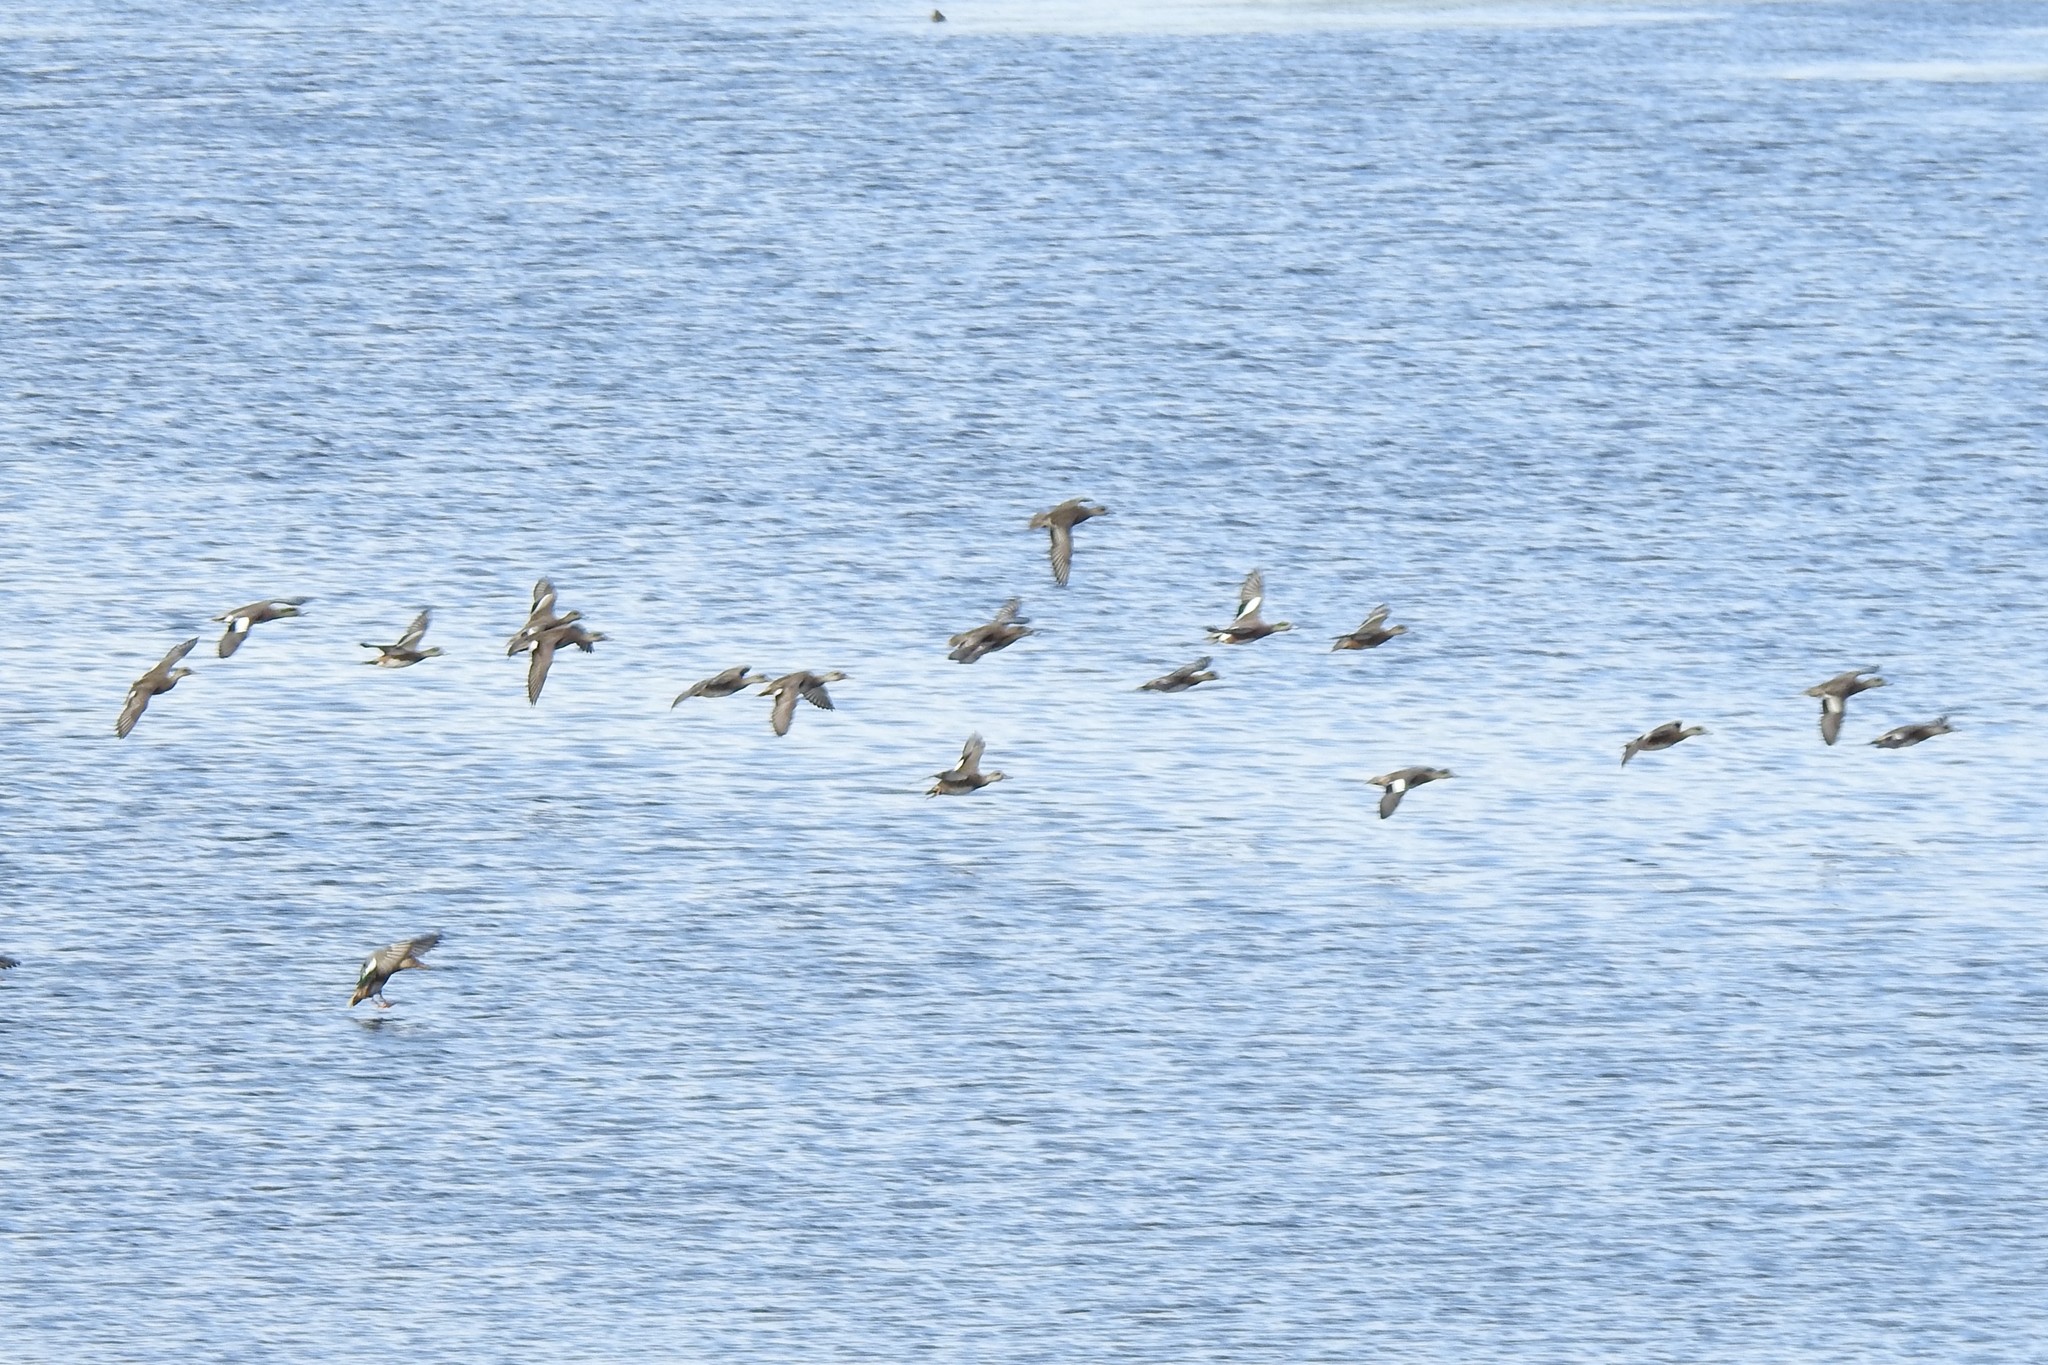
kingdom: Animalia
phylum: Chordata
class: Aves
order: Anseriformes
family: Anatidae
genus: Mareca
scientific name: Mareca americana
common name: American wigeon
